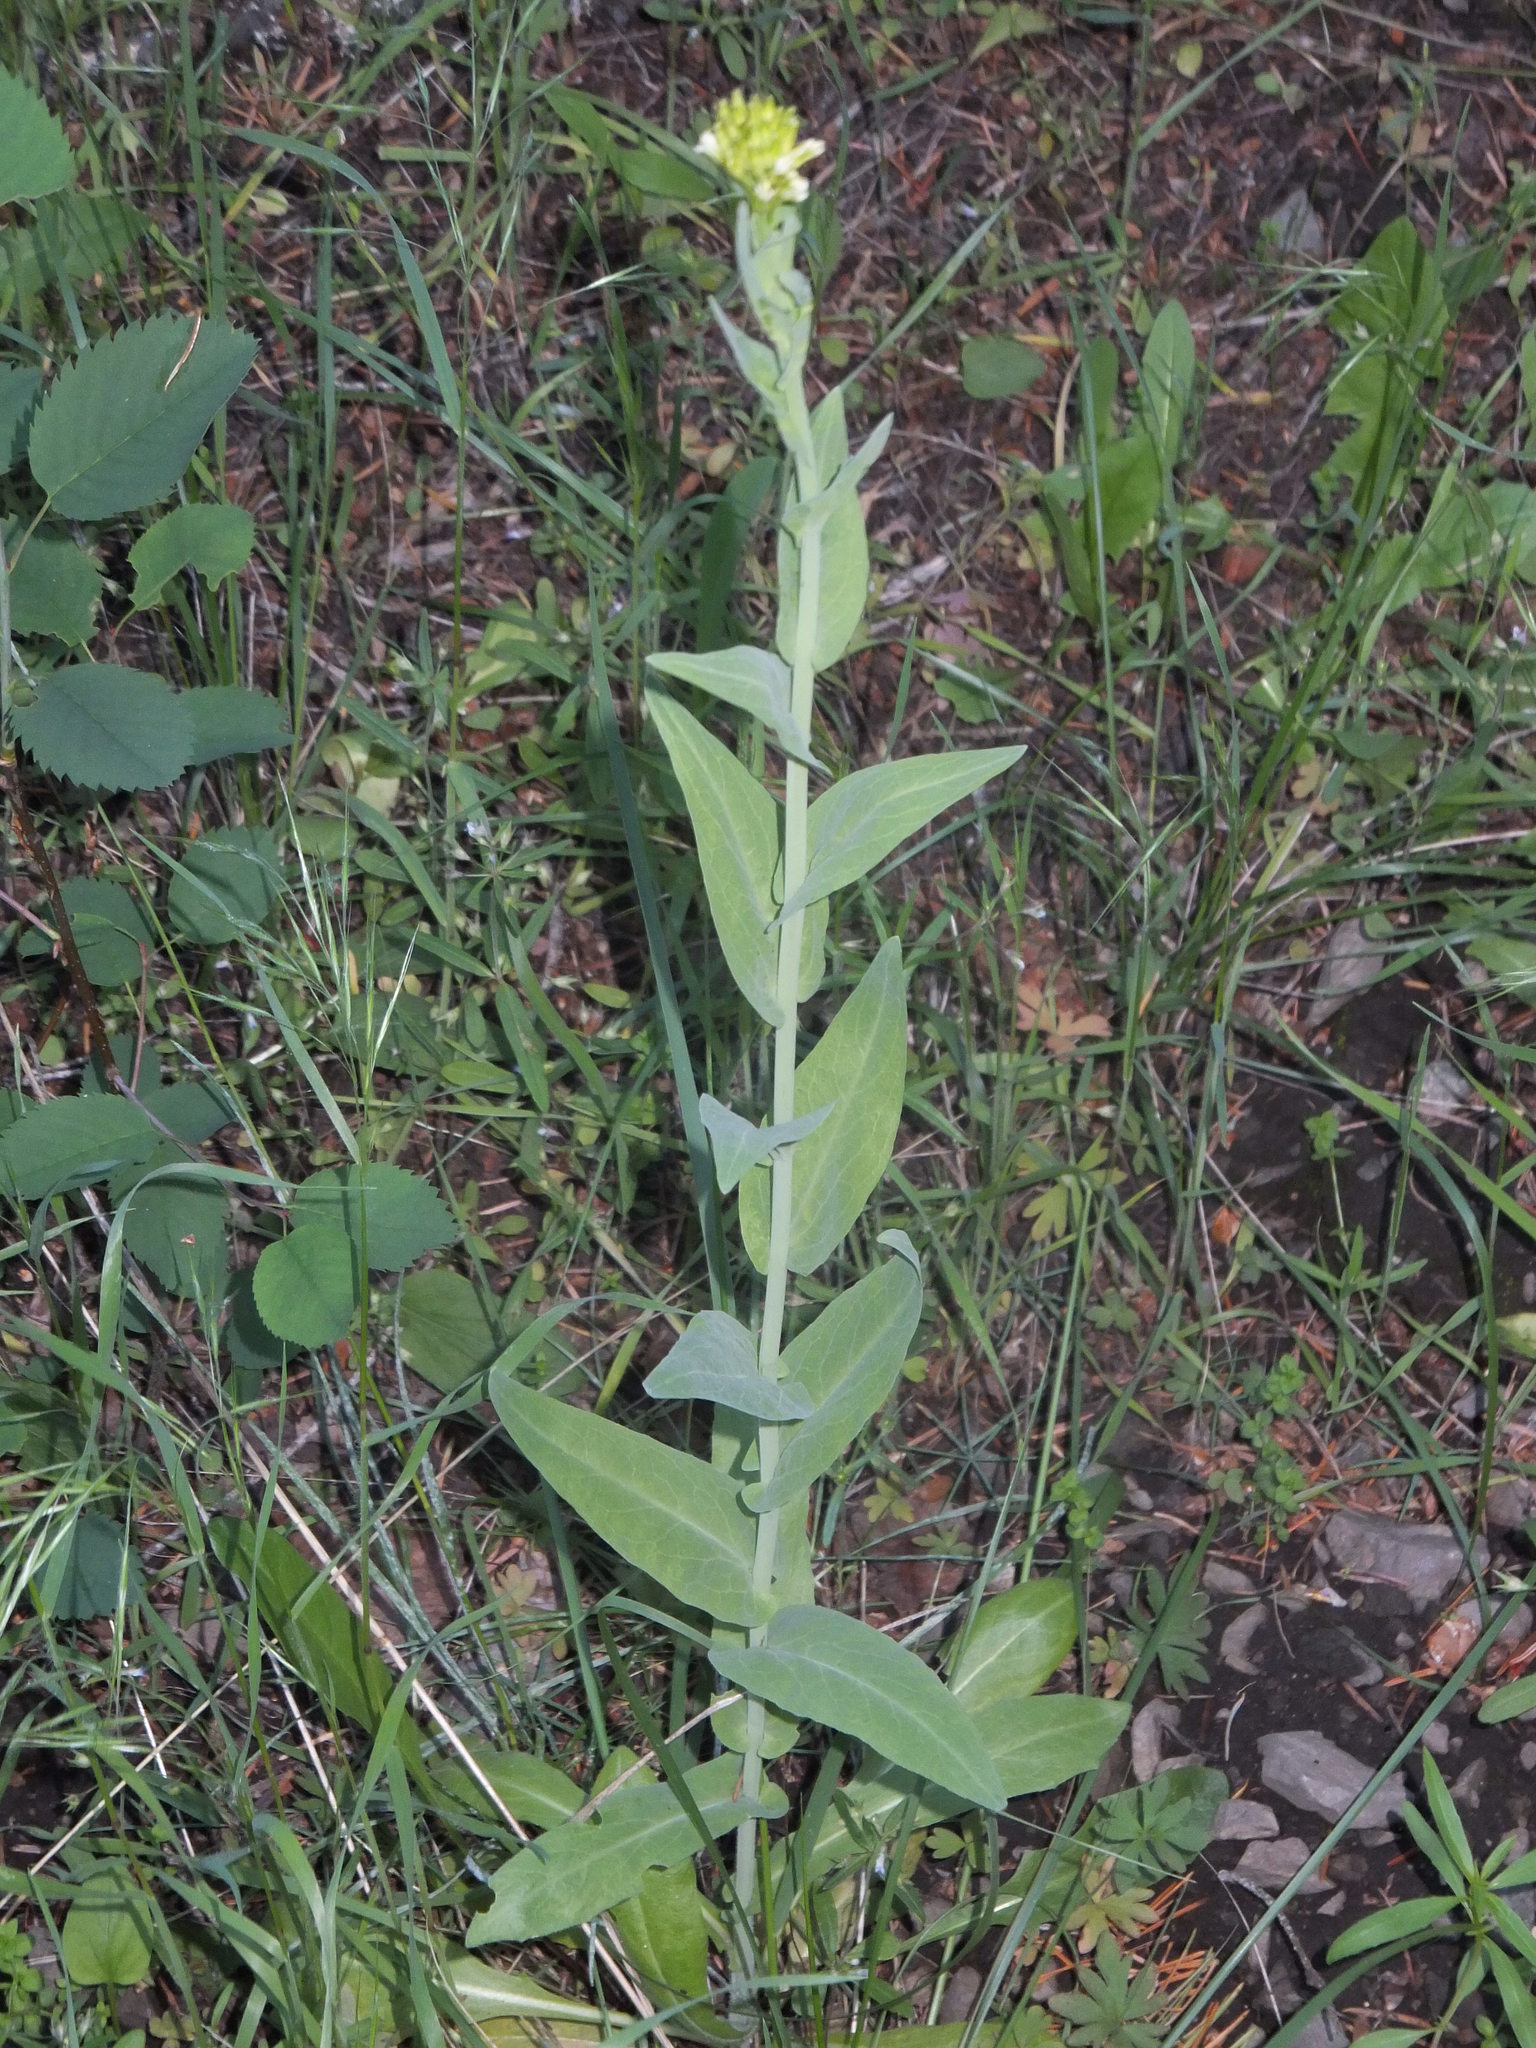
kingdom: Plantae
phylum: Tracheophyta
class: Magnoliopsida
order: Brassicales
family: Brassicaceae
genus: Turritis
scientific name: Turritis glabra
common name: Tower rockcress
